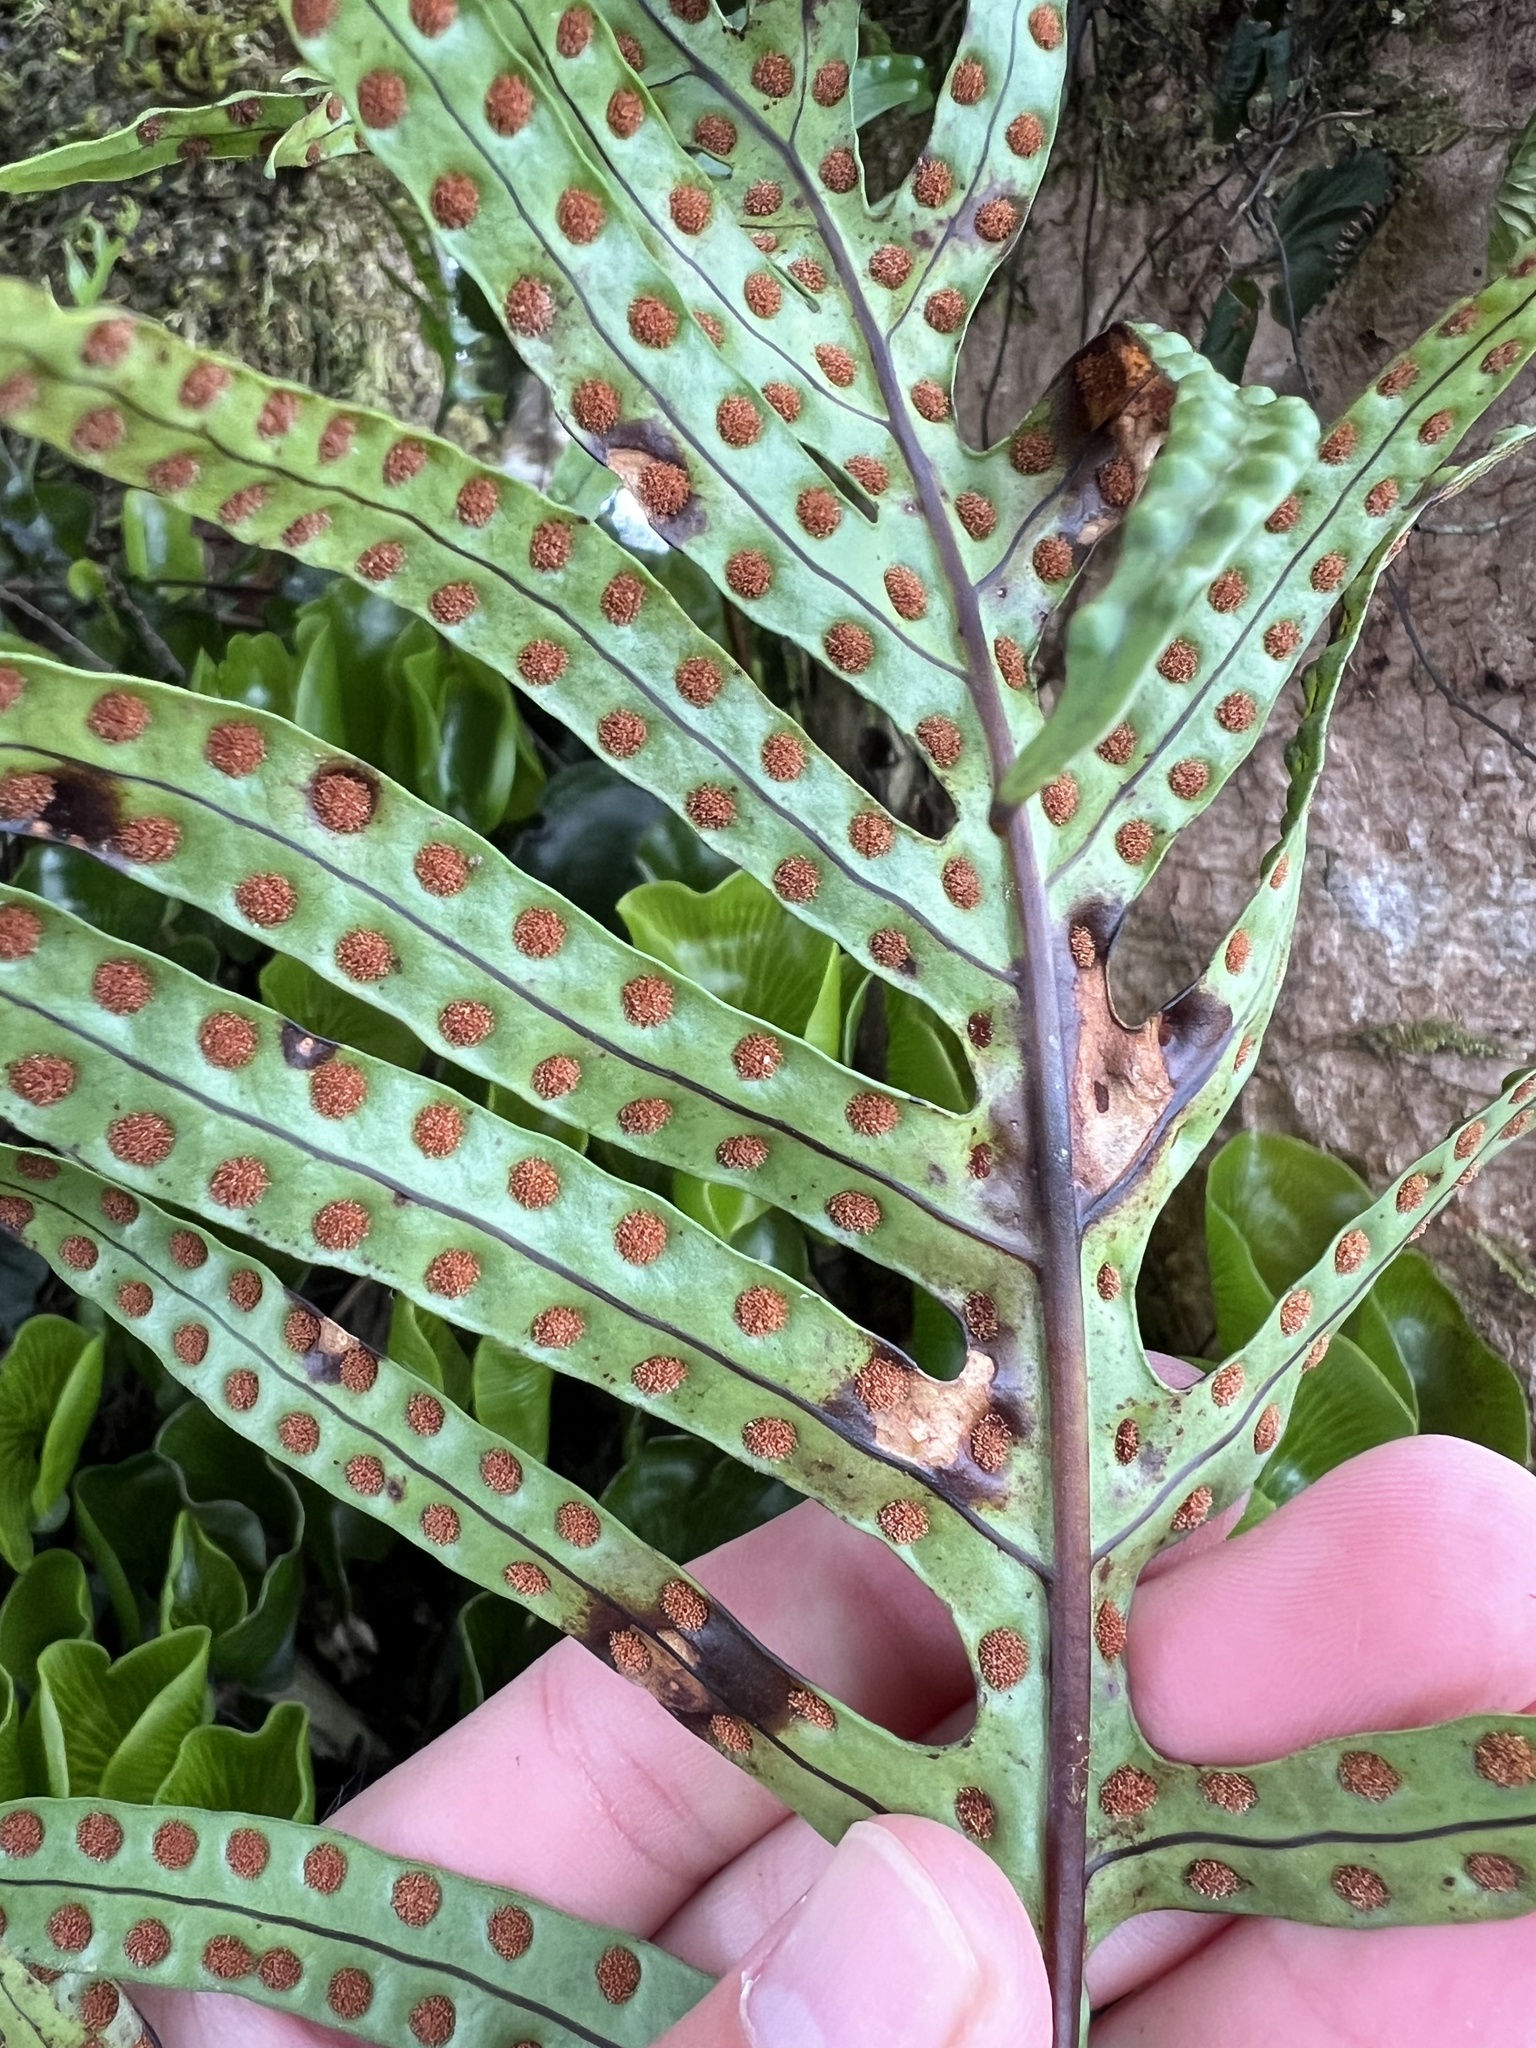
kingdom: Plantae
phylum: Tracheophyta
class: Polypodiopsida
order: Polypodiales
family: Polypodiaceae
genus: Lecanopteris
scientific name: Lecanopteris novae-zealandiae
